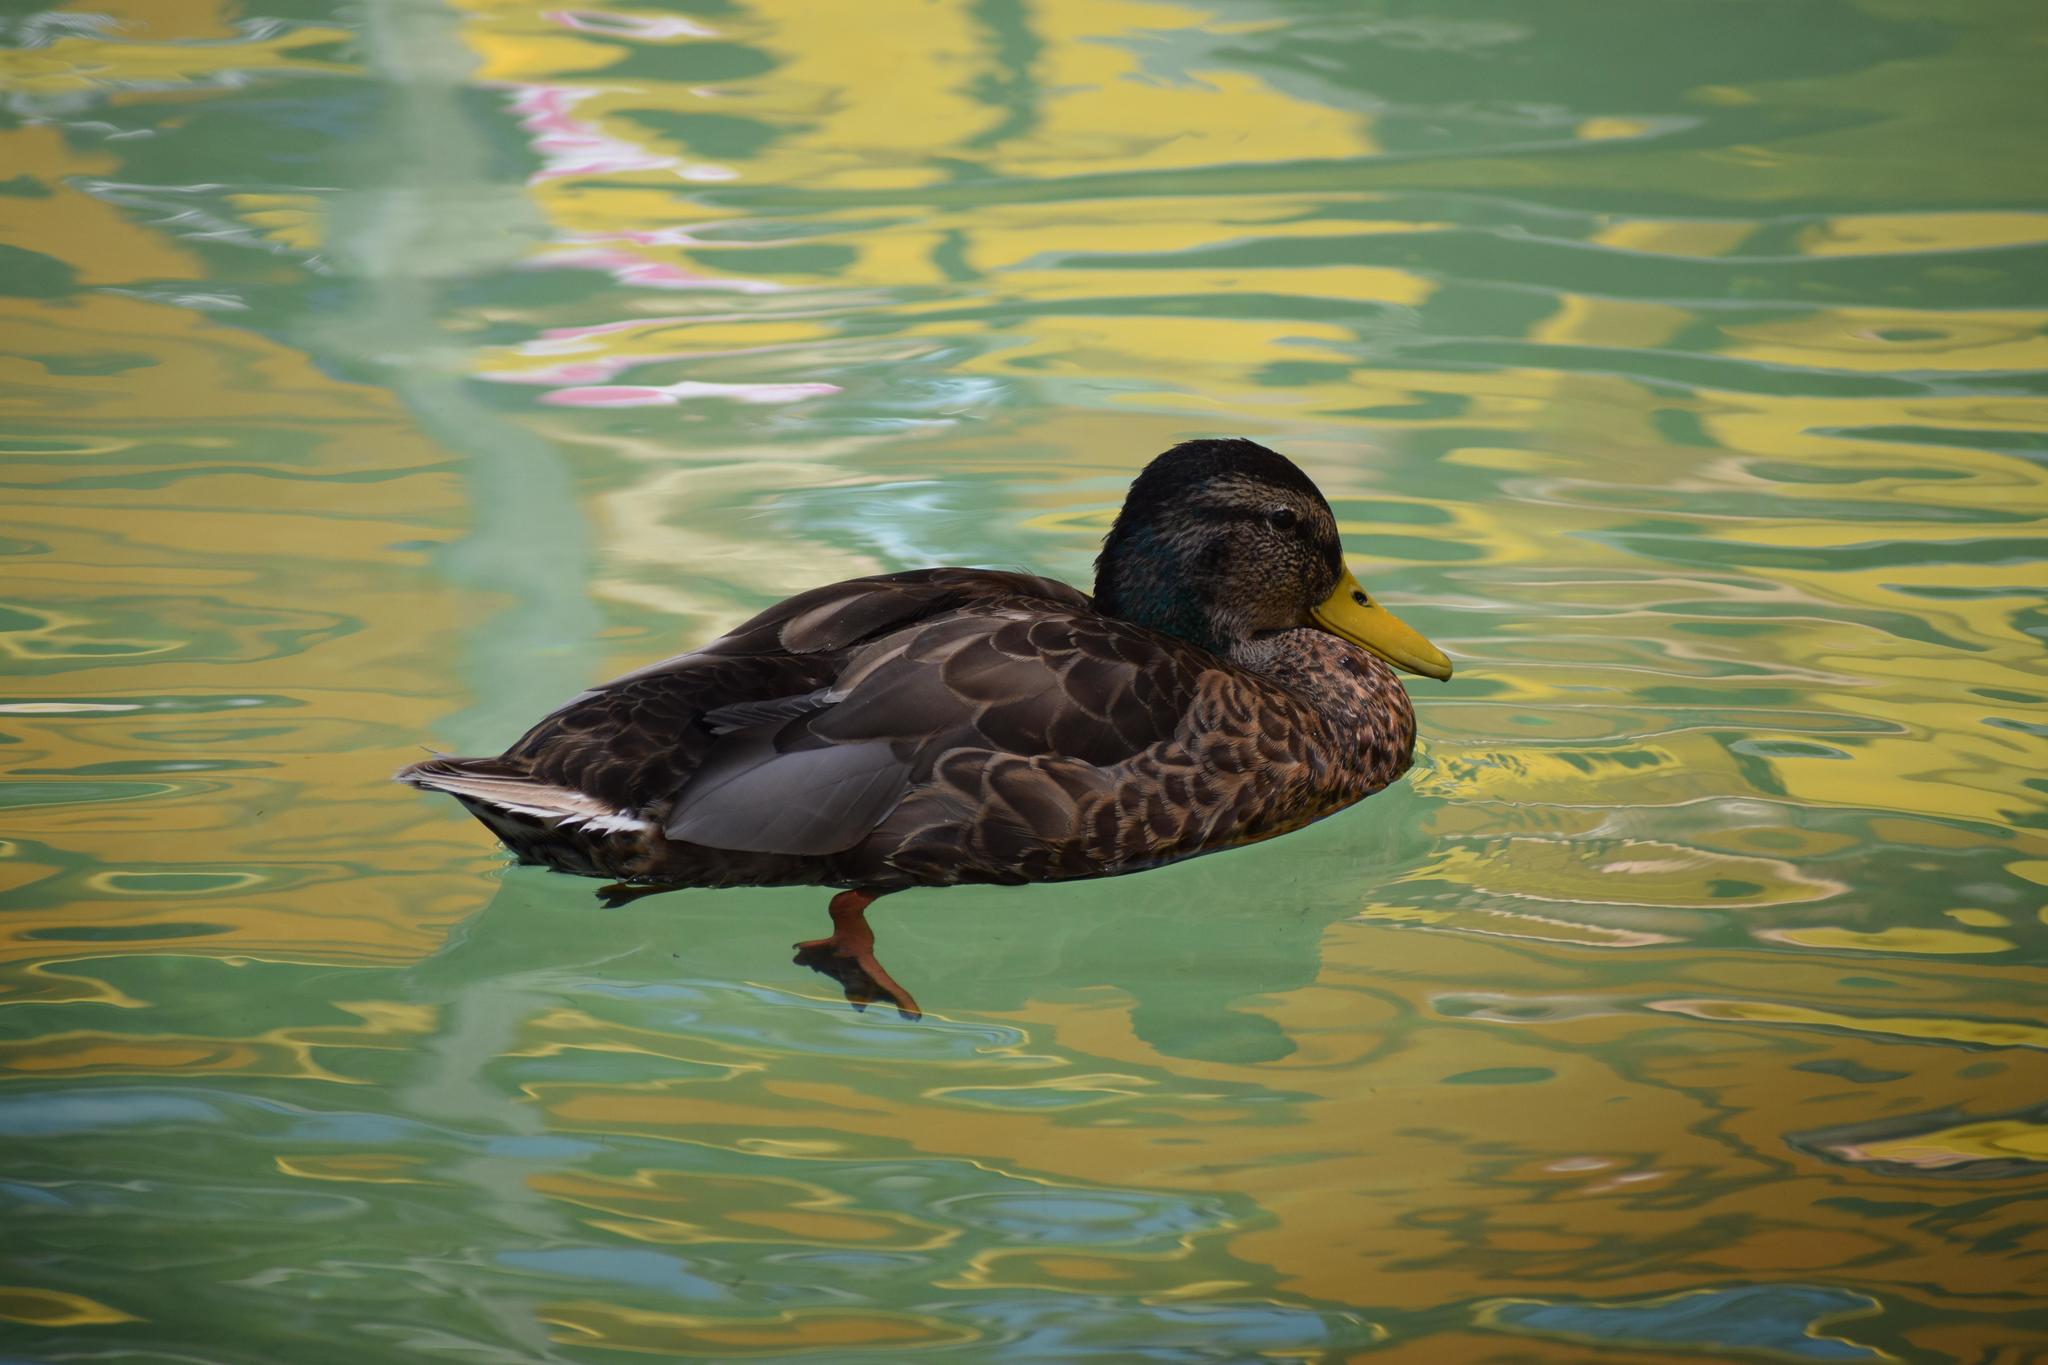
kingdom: Animalia
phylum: Chordata
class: Aves
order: Anseriformes
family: Anatidae
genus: Anas
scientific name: Anas platyrhynchos
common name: Mallard
